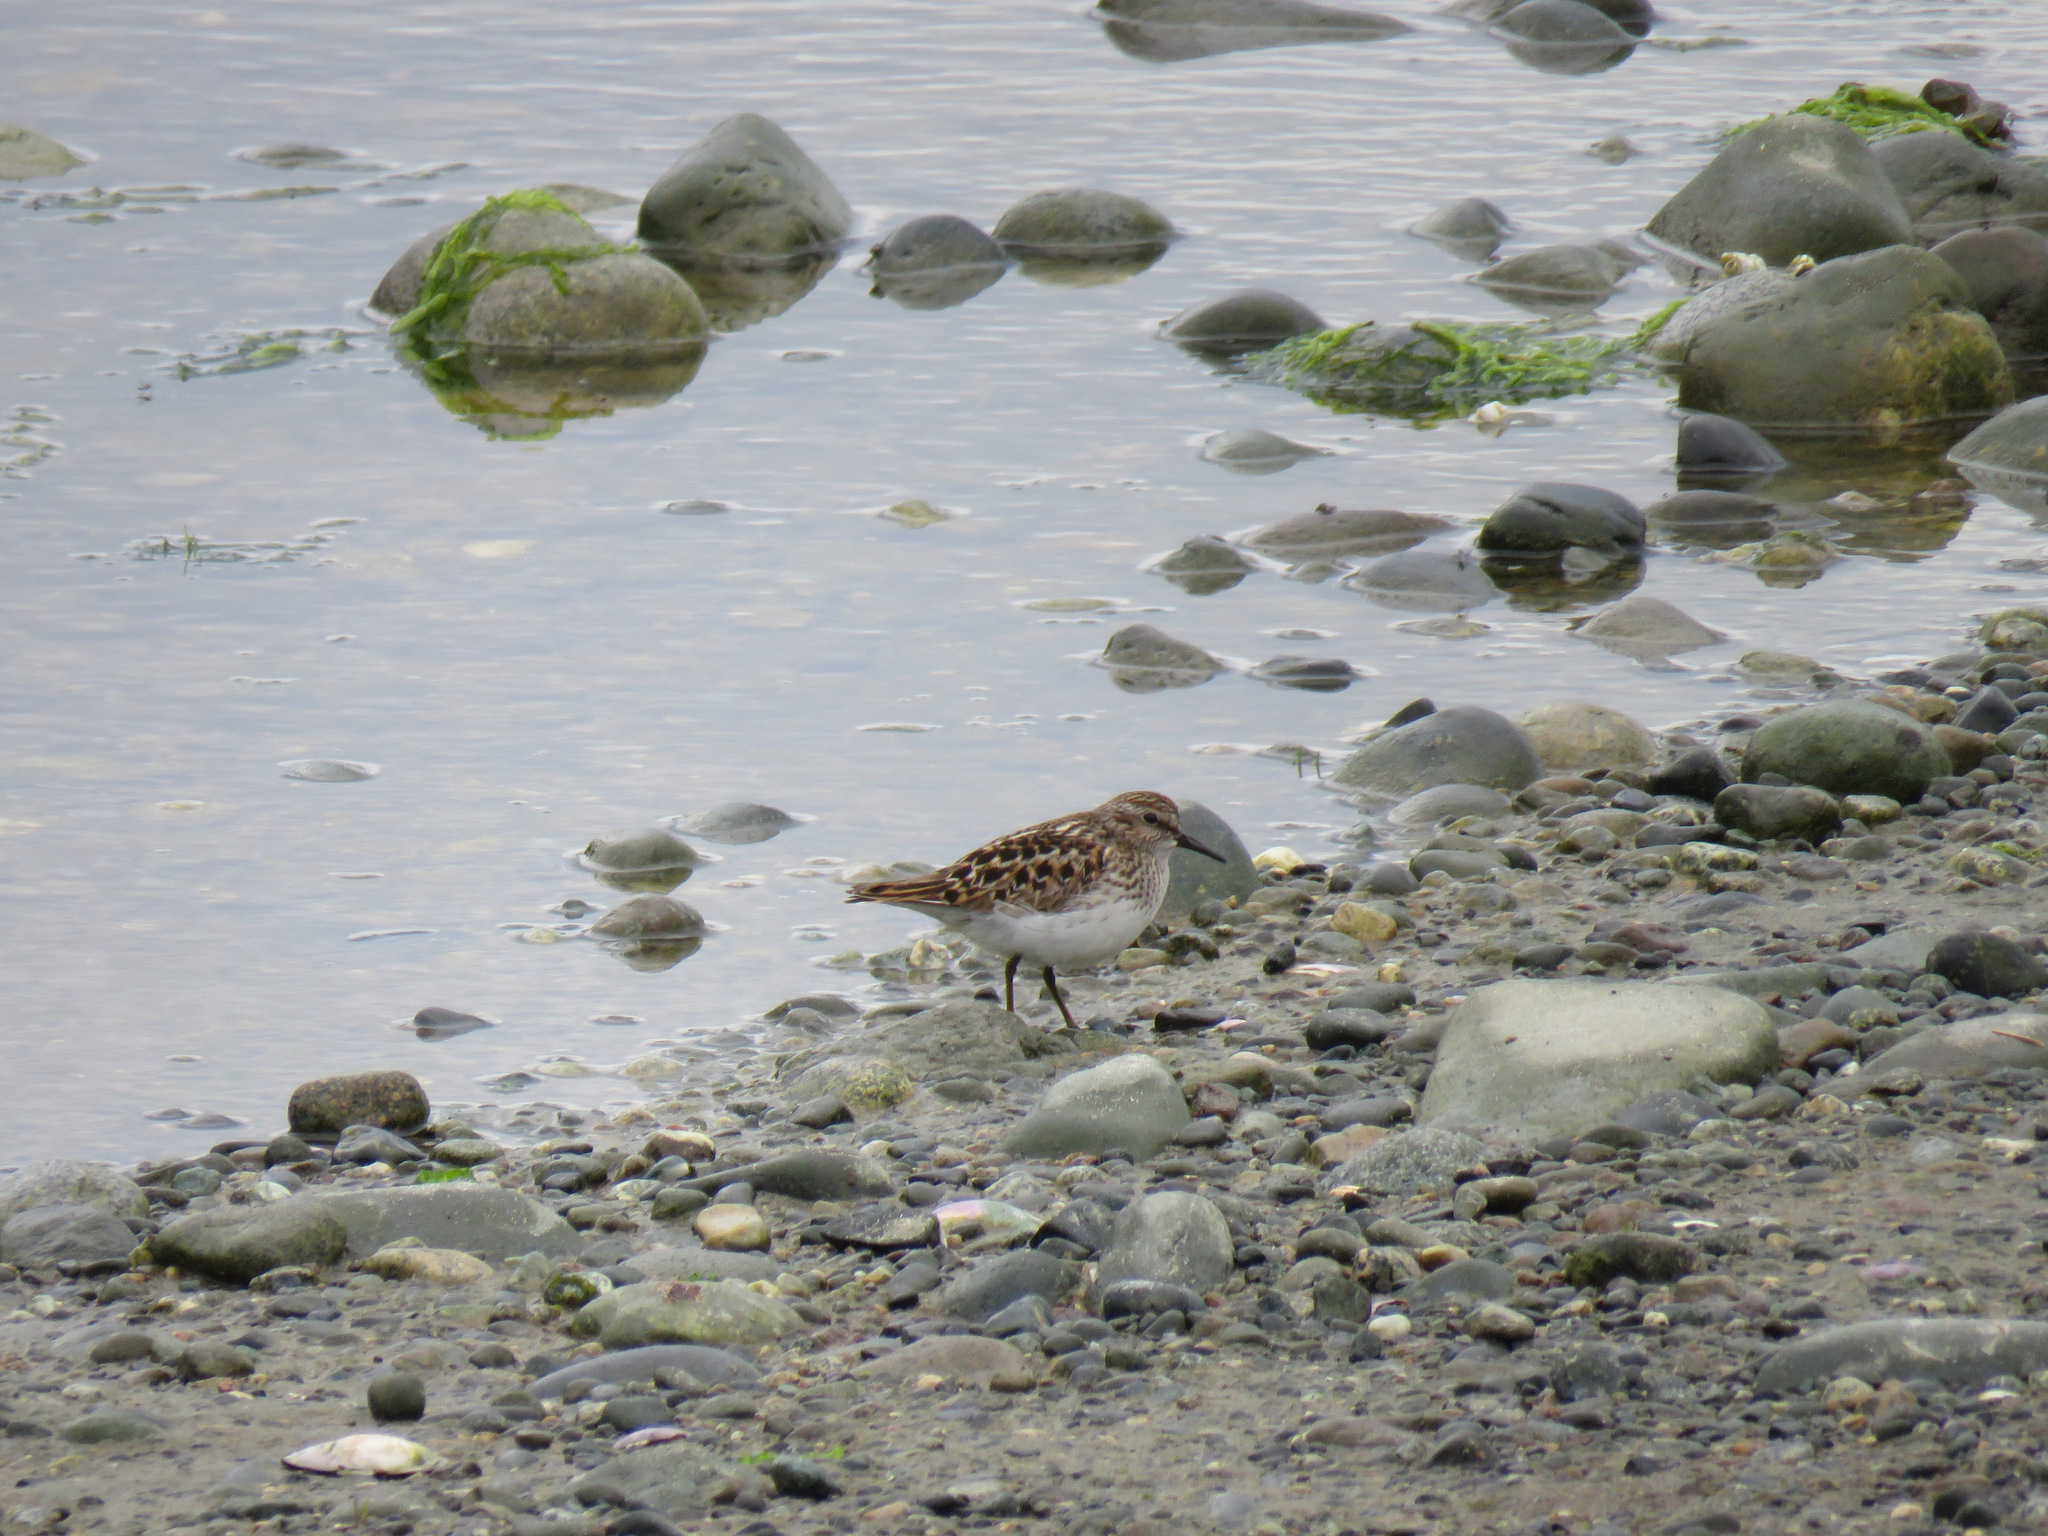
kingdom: Animalia
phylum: Chordata
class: Aves
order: Charadriiformes
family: Scolopacidae
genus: Calidris
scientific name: Calidris minutilla
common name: Least sandpiper
